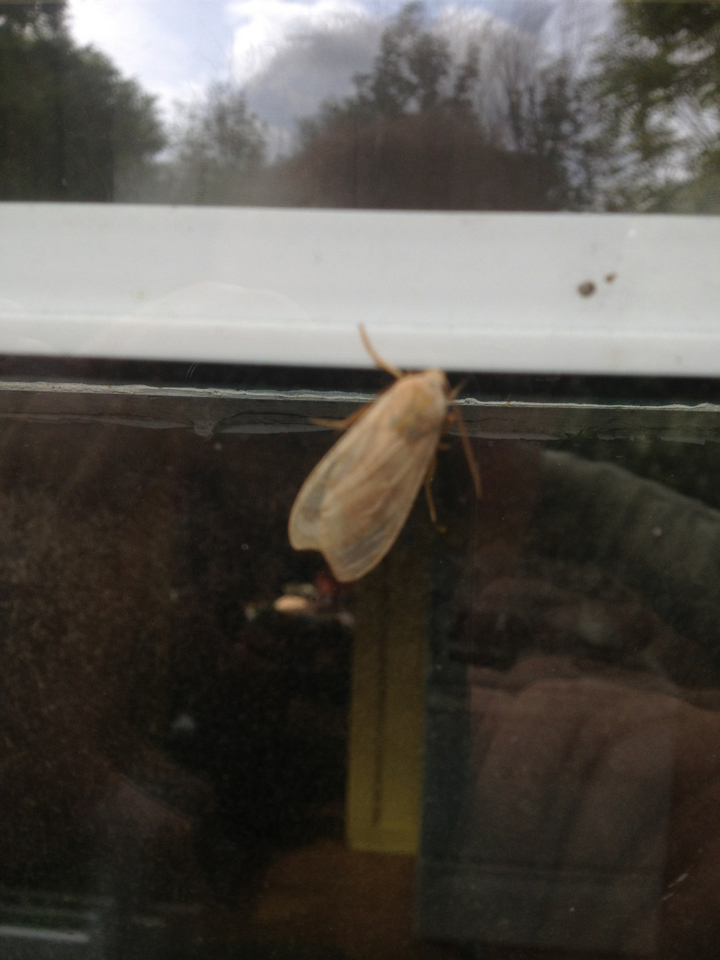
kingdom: Animalia
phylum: Arthropoda
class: Insecta
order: Lepidoptera
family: Erebidae
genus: Halysidota
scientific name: Halysidota tessellaris
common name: Banded tussock moth
